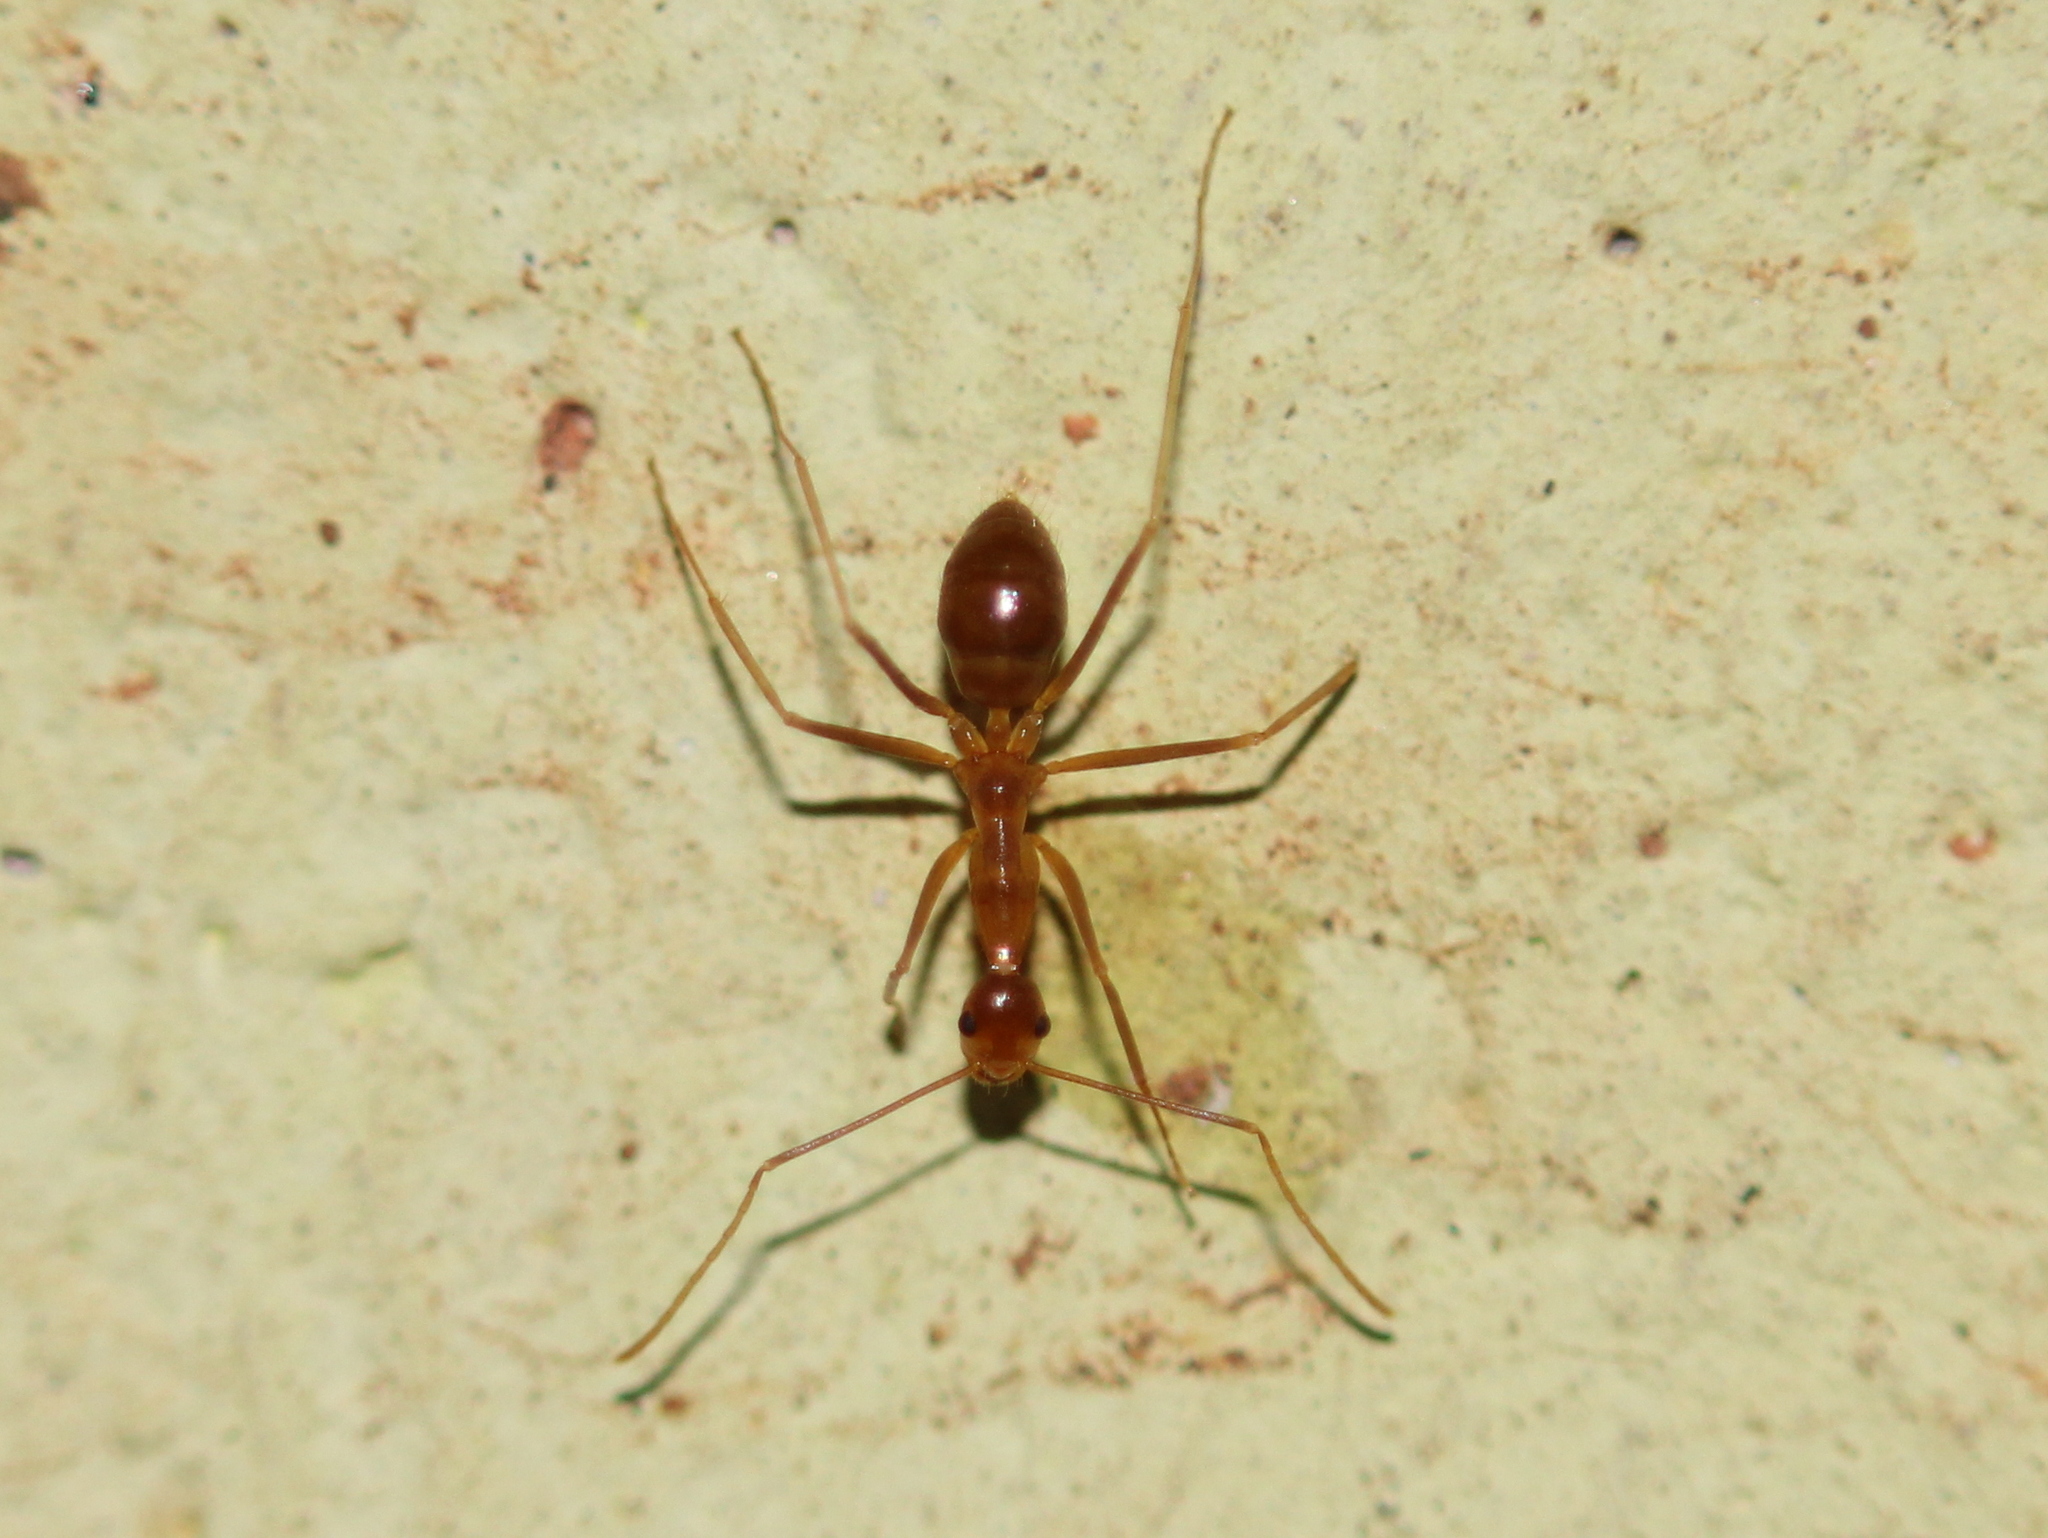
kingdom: Animalia
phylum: Arthropoda
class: Insecta
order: Hymenoptera
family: Formicidae
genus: Anoplolepis
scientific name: Anoplolepis gracilipes
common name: Ant
